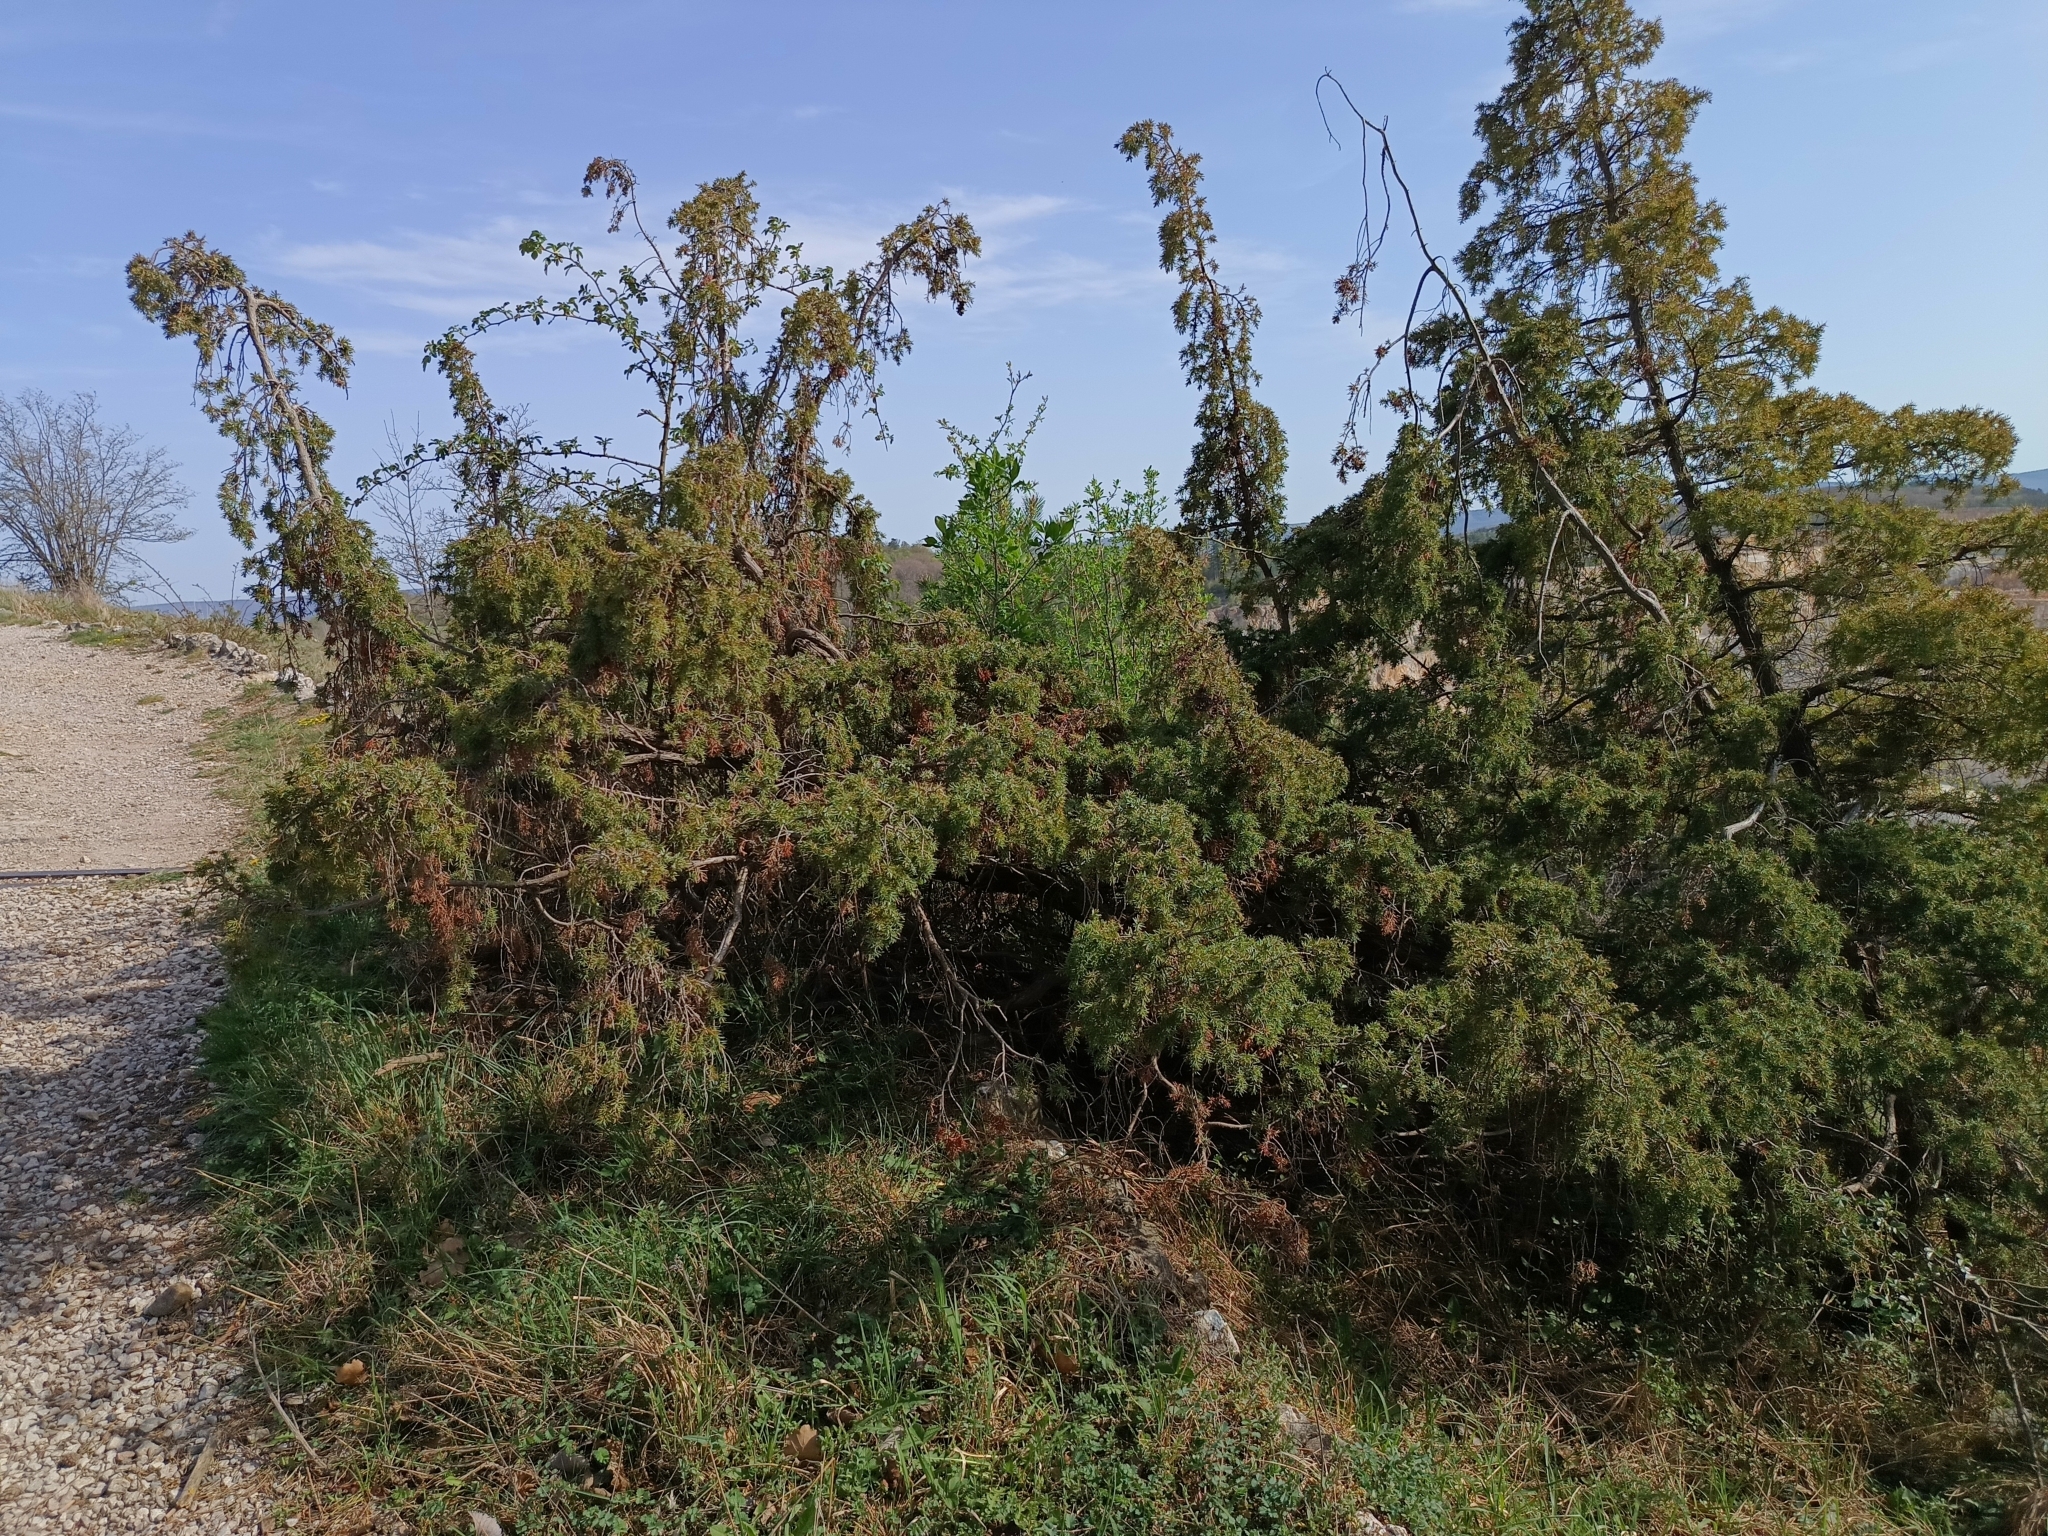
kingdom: Plantae
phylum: Tracheophyta
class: Pinopsida
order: Pinales
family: Cupressaceae
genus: Juniperus
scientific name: Juniperus communis
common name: Common juniper
